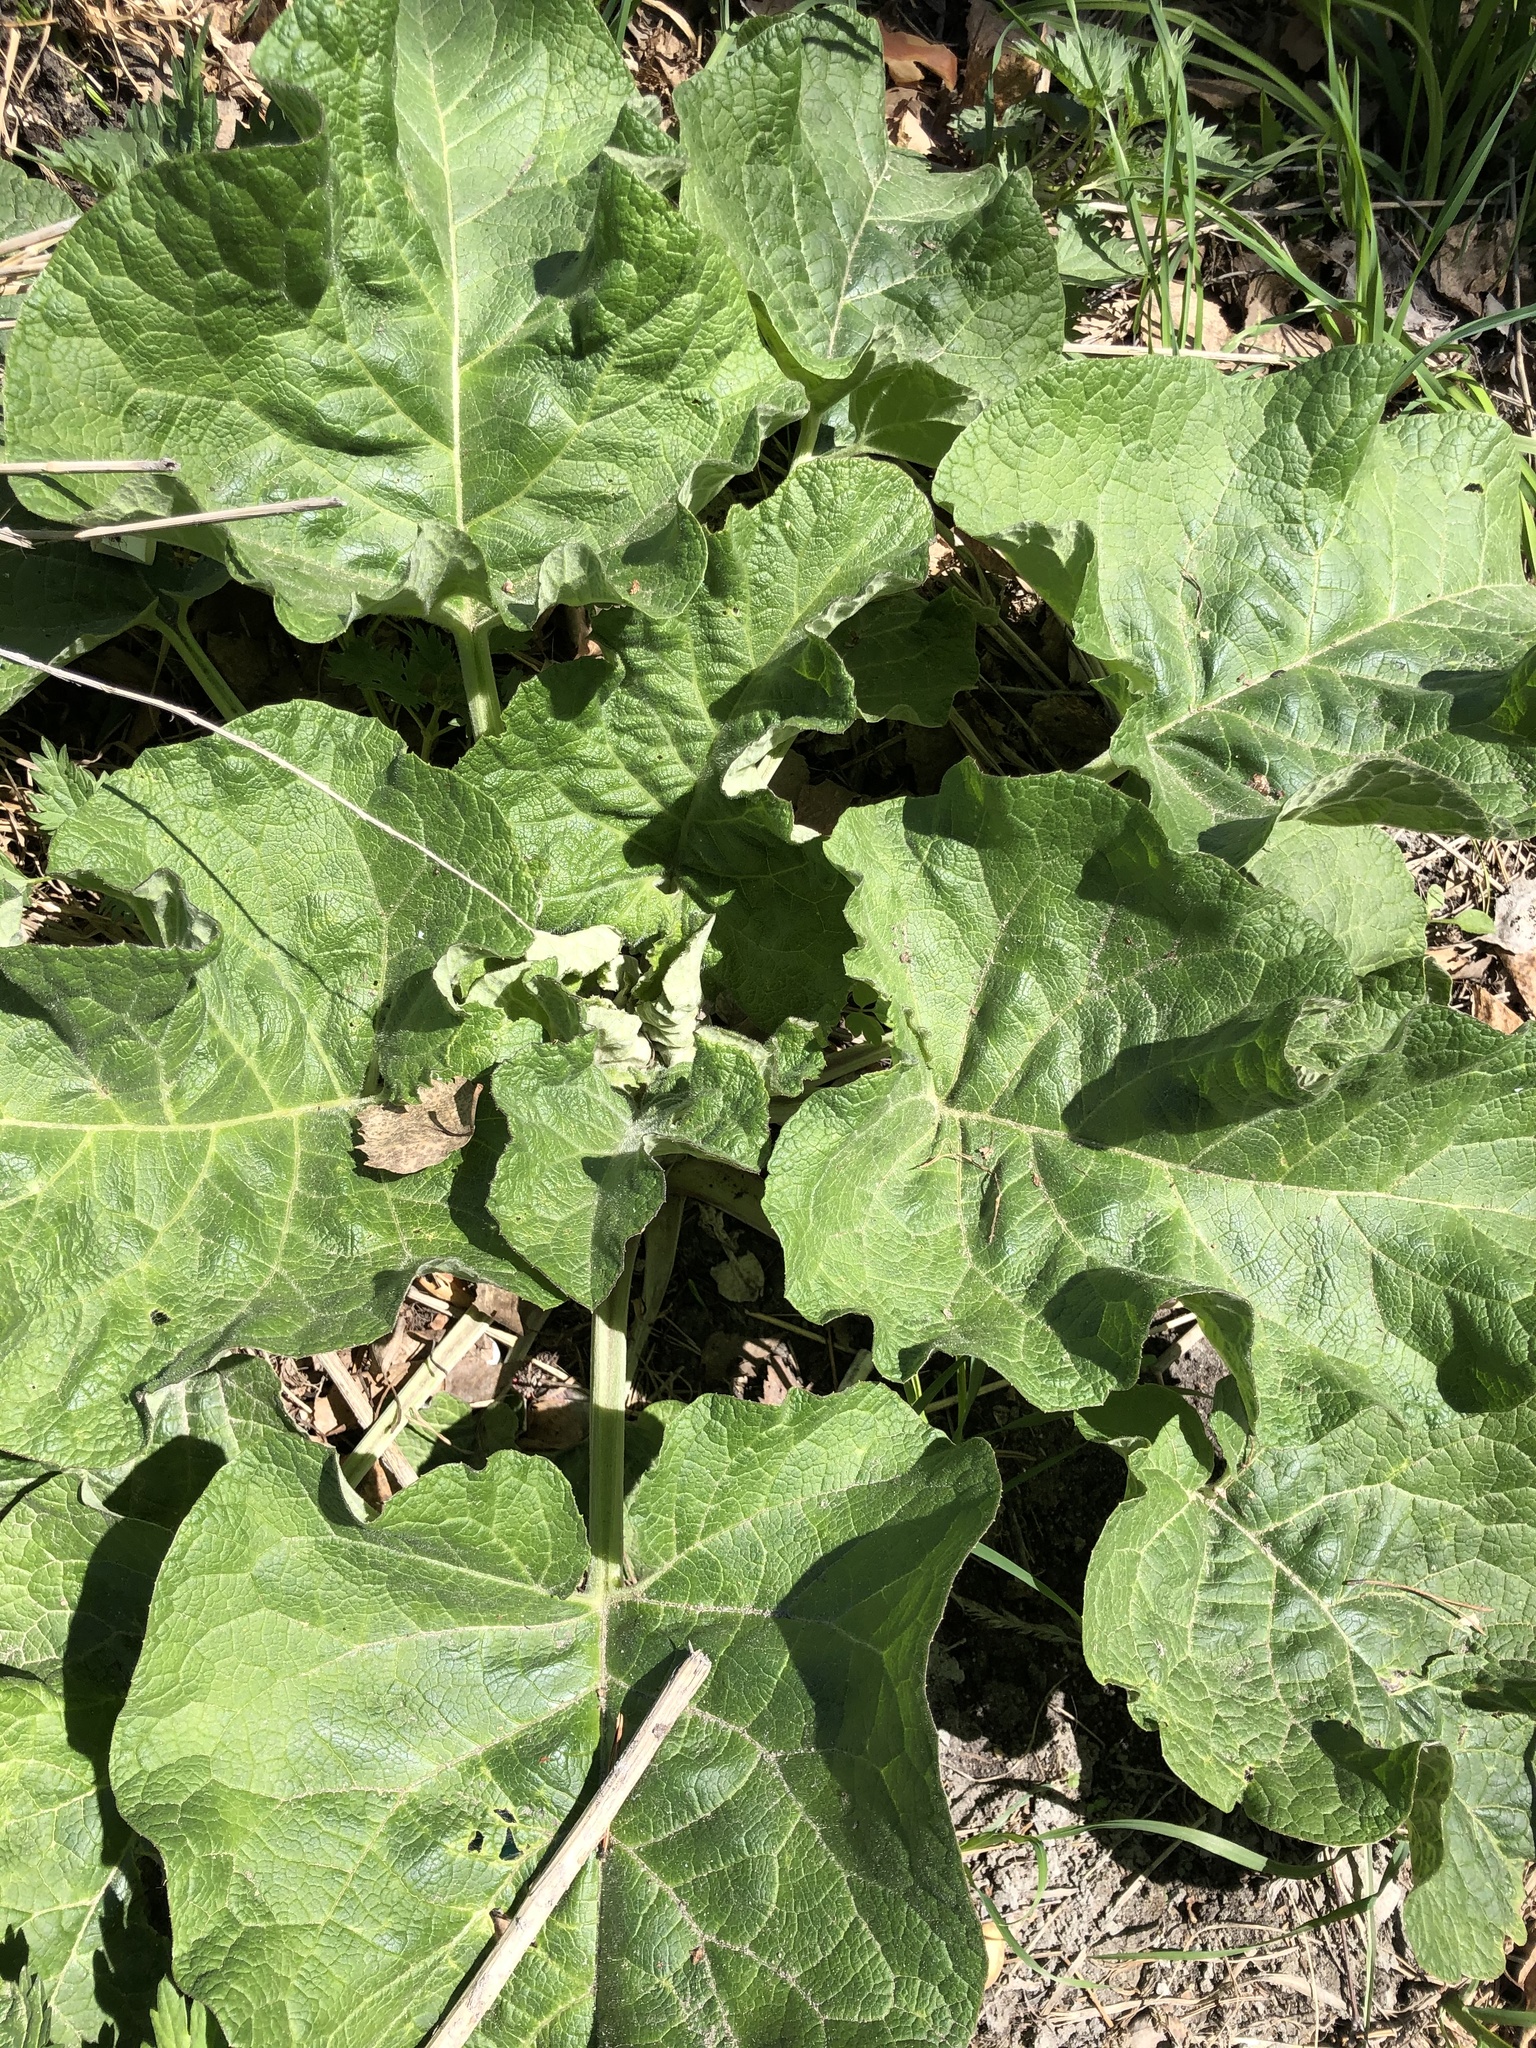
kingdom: Plantae
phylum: Tracheophyta
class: Magnoliopsida
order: Asterales
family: Asteraceae
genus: Arctium
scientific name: Arctium tomentosum
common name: Woolly burdock
